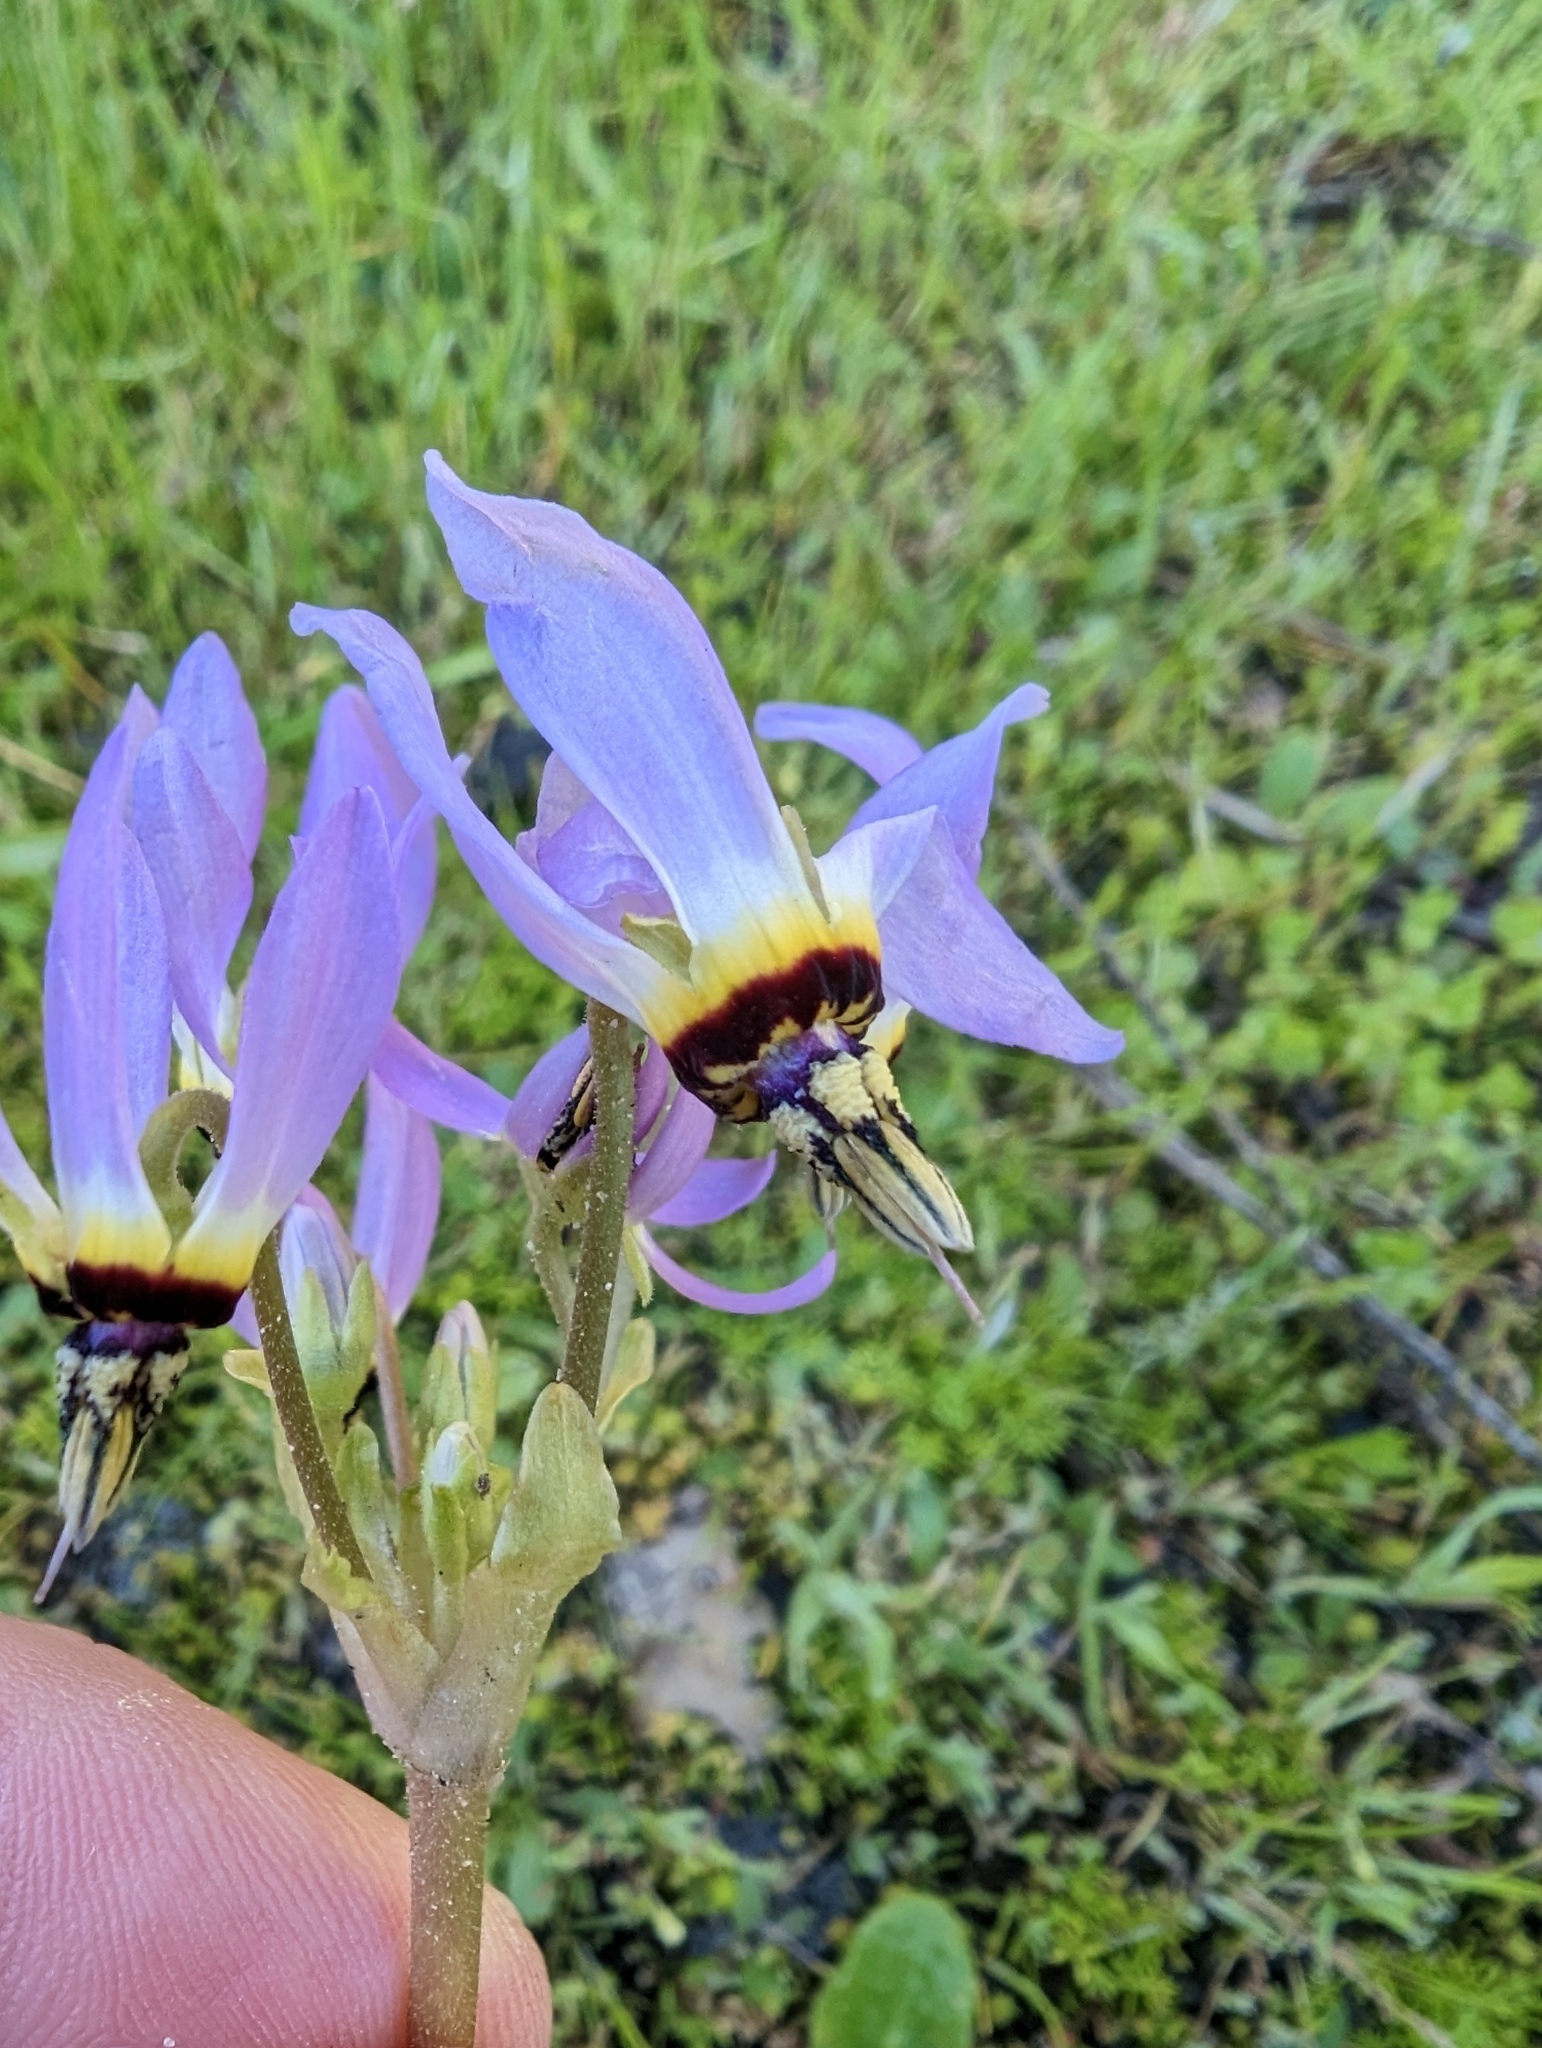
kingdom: Plantae
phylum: Tracheophyta
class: Magnoliopsida
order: Ericales
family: Primulaceae
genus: Dodecatheon
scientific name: Dodecatheon clevelandii
